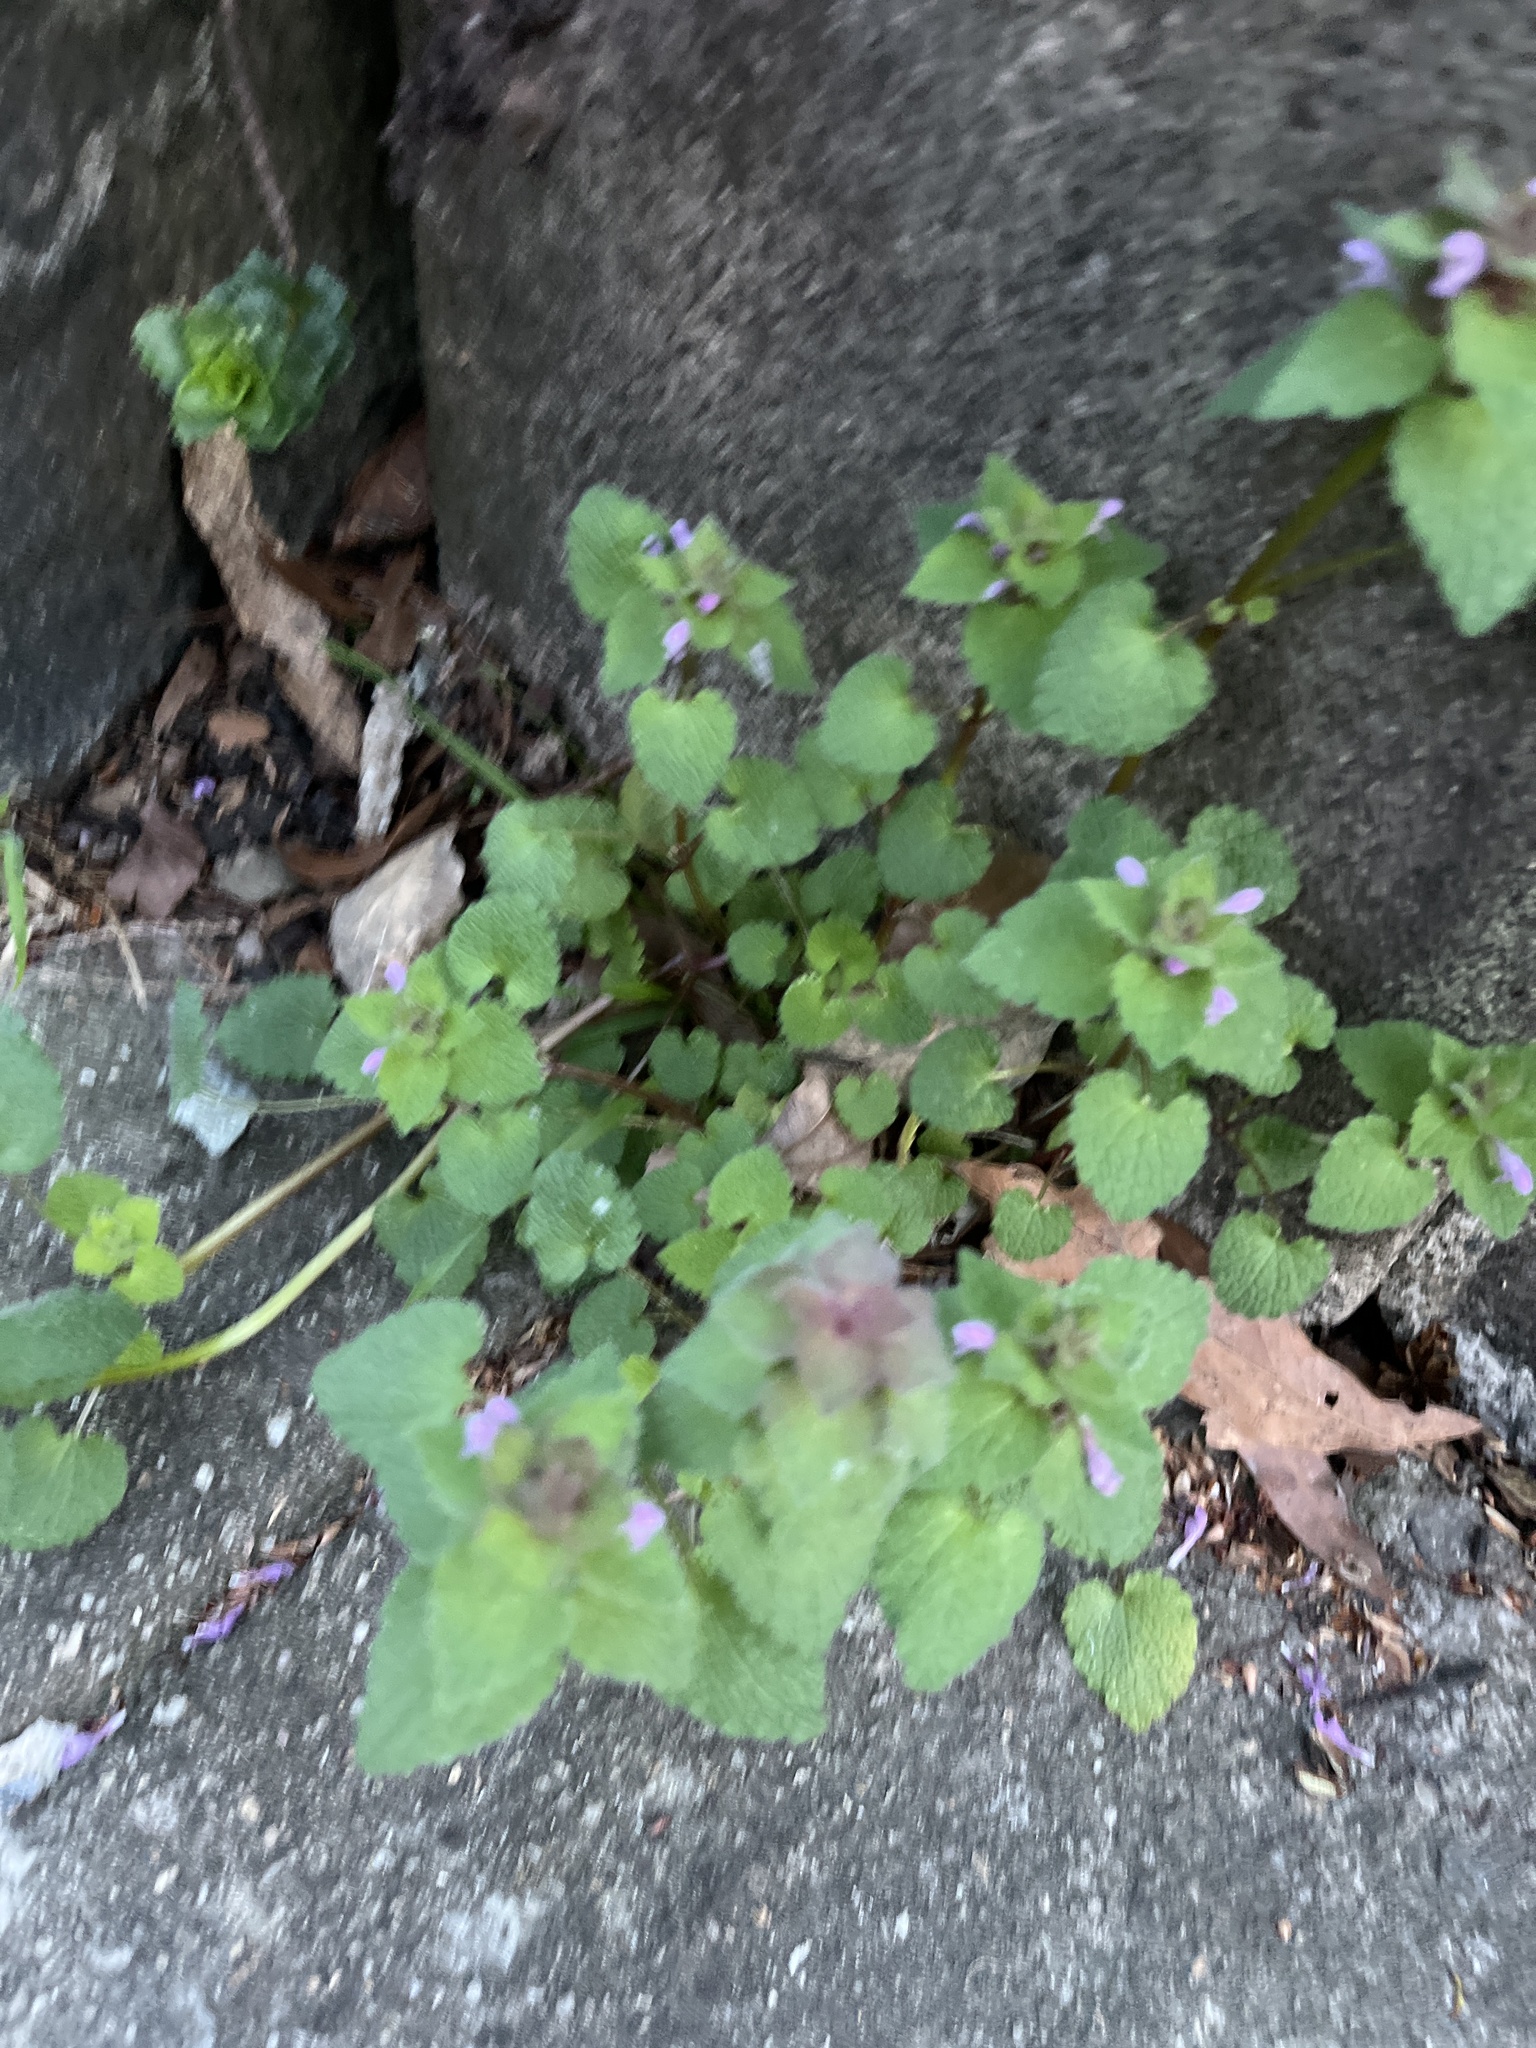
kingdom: Plantae
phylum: Tracheophyta
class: Magnoliopsida
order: Lamiales
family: Lamiaceae
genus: Lamium
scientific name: Lamium purpureum
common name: Red dead-nettle
